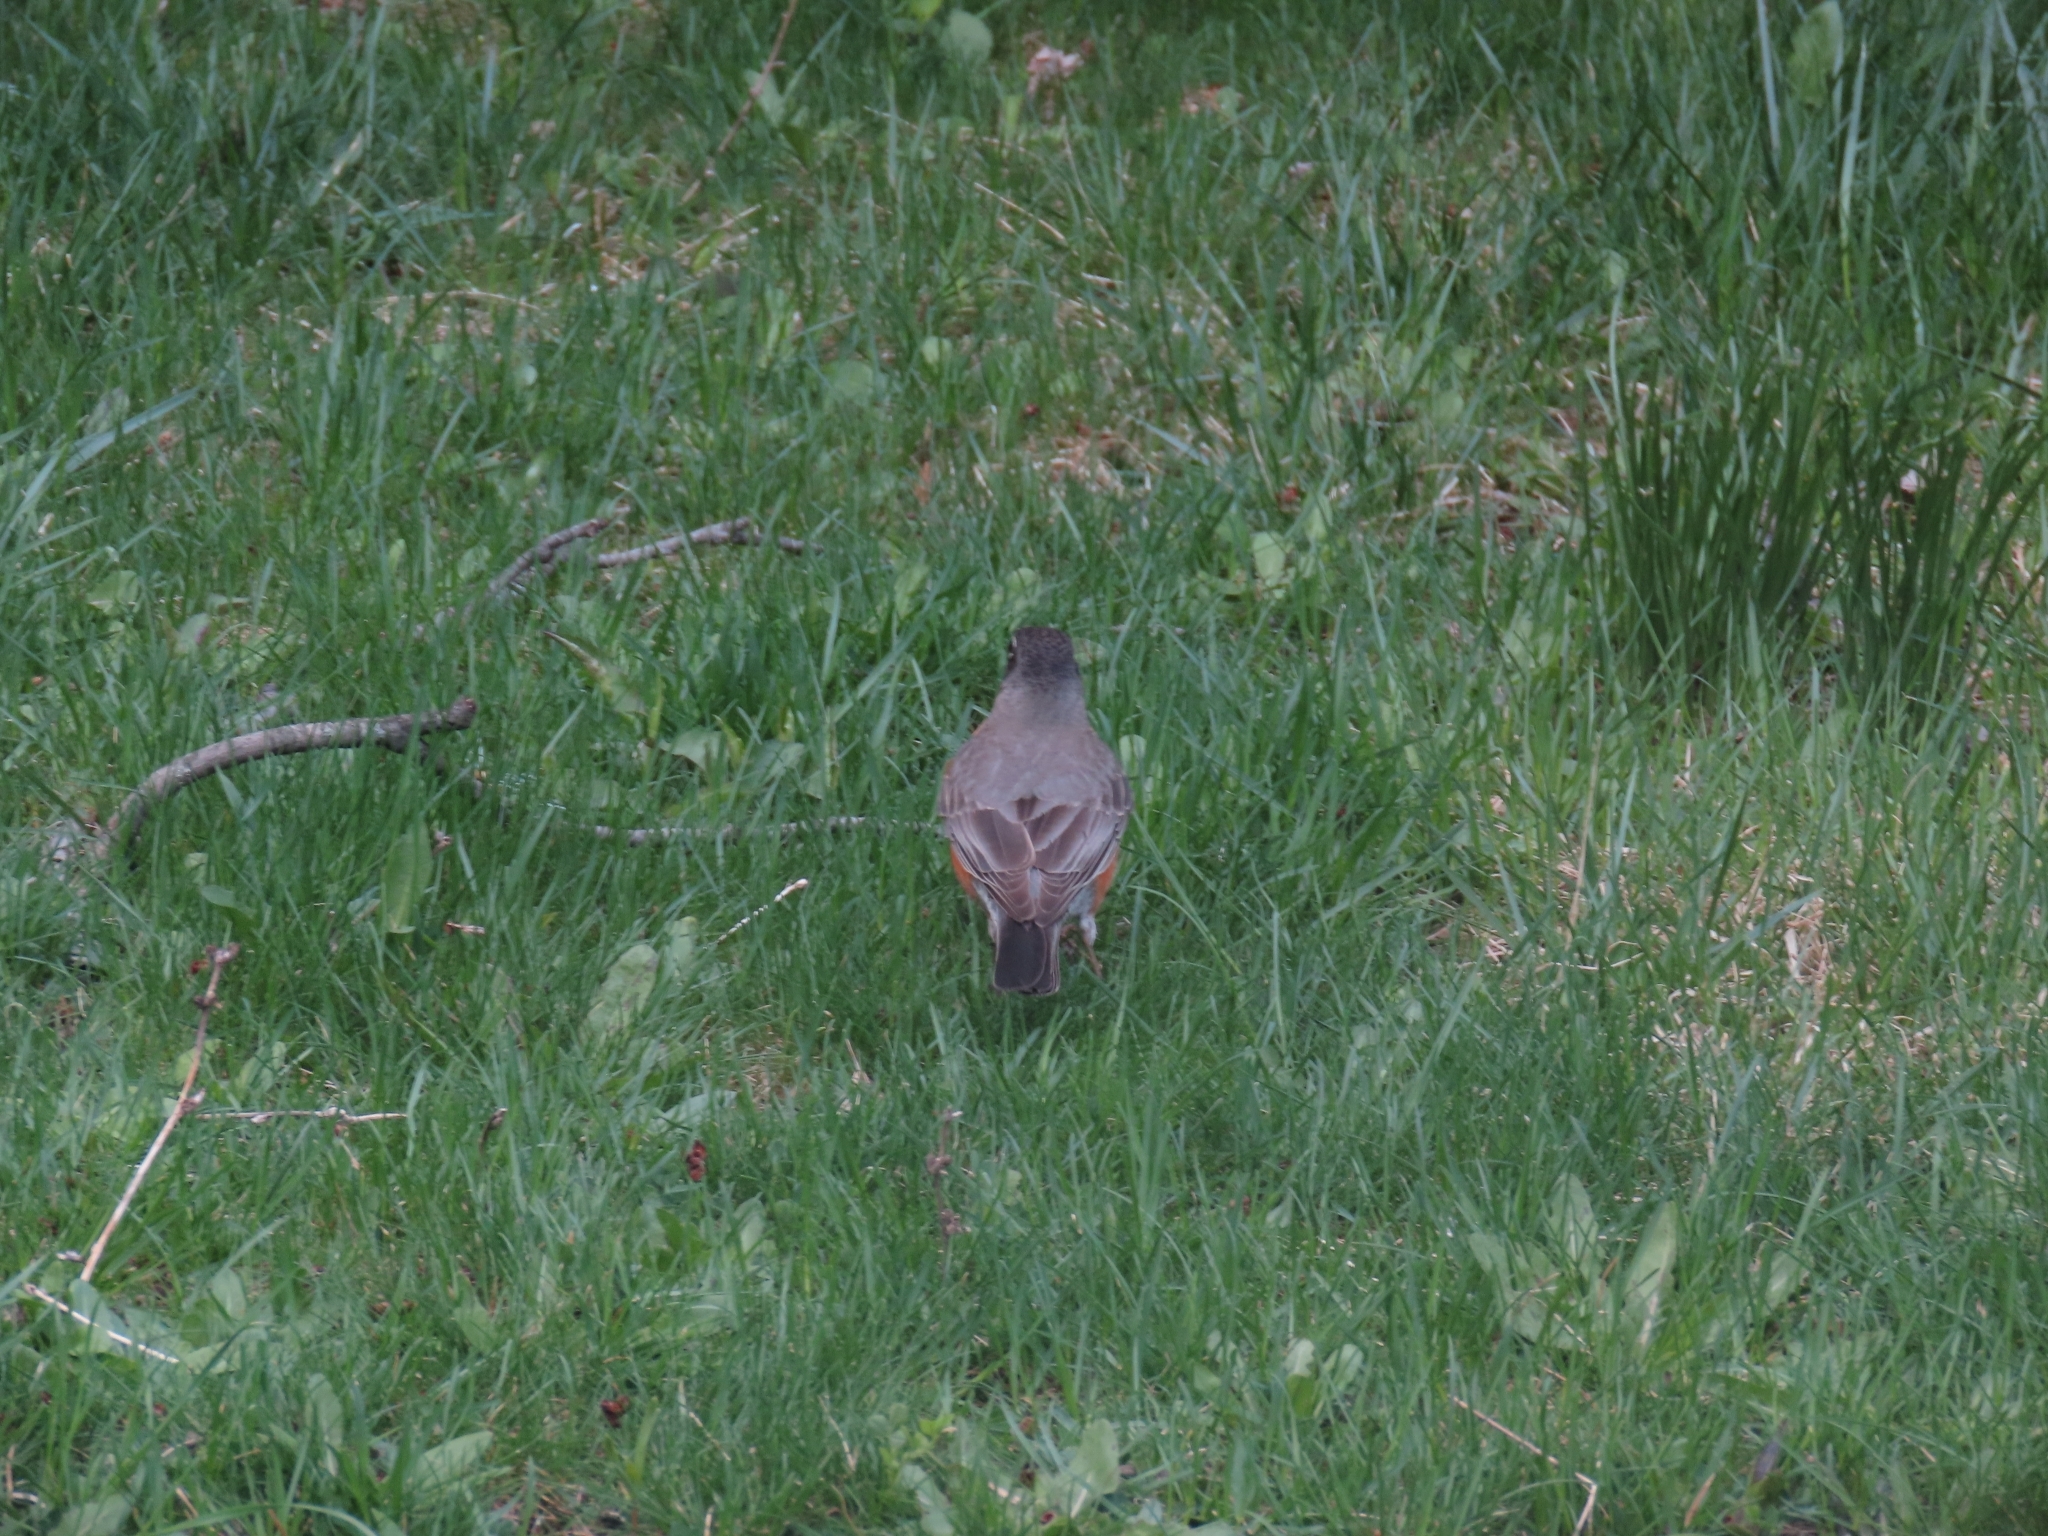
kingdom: Animalia
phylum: Chordata
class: Aves
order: Passeriformes
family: Turdidae
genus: Turdus
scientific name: Turdus migratorius
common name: American robin
